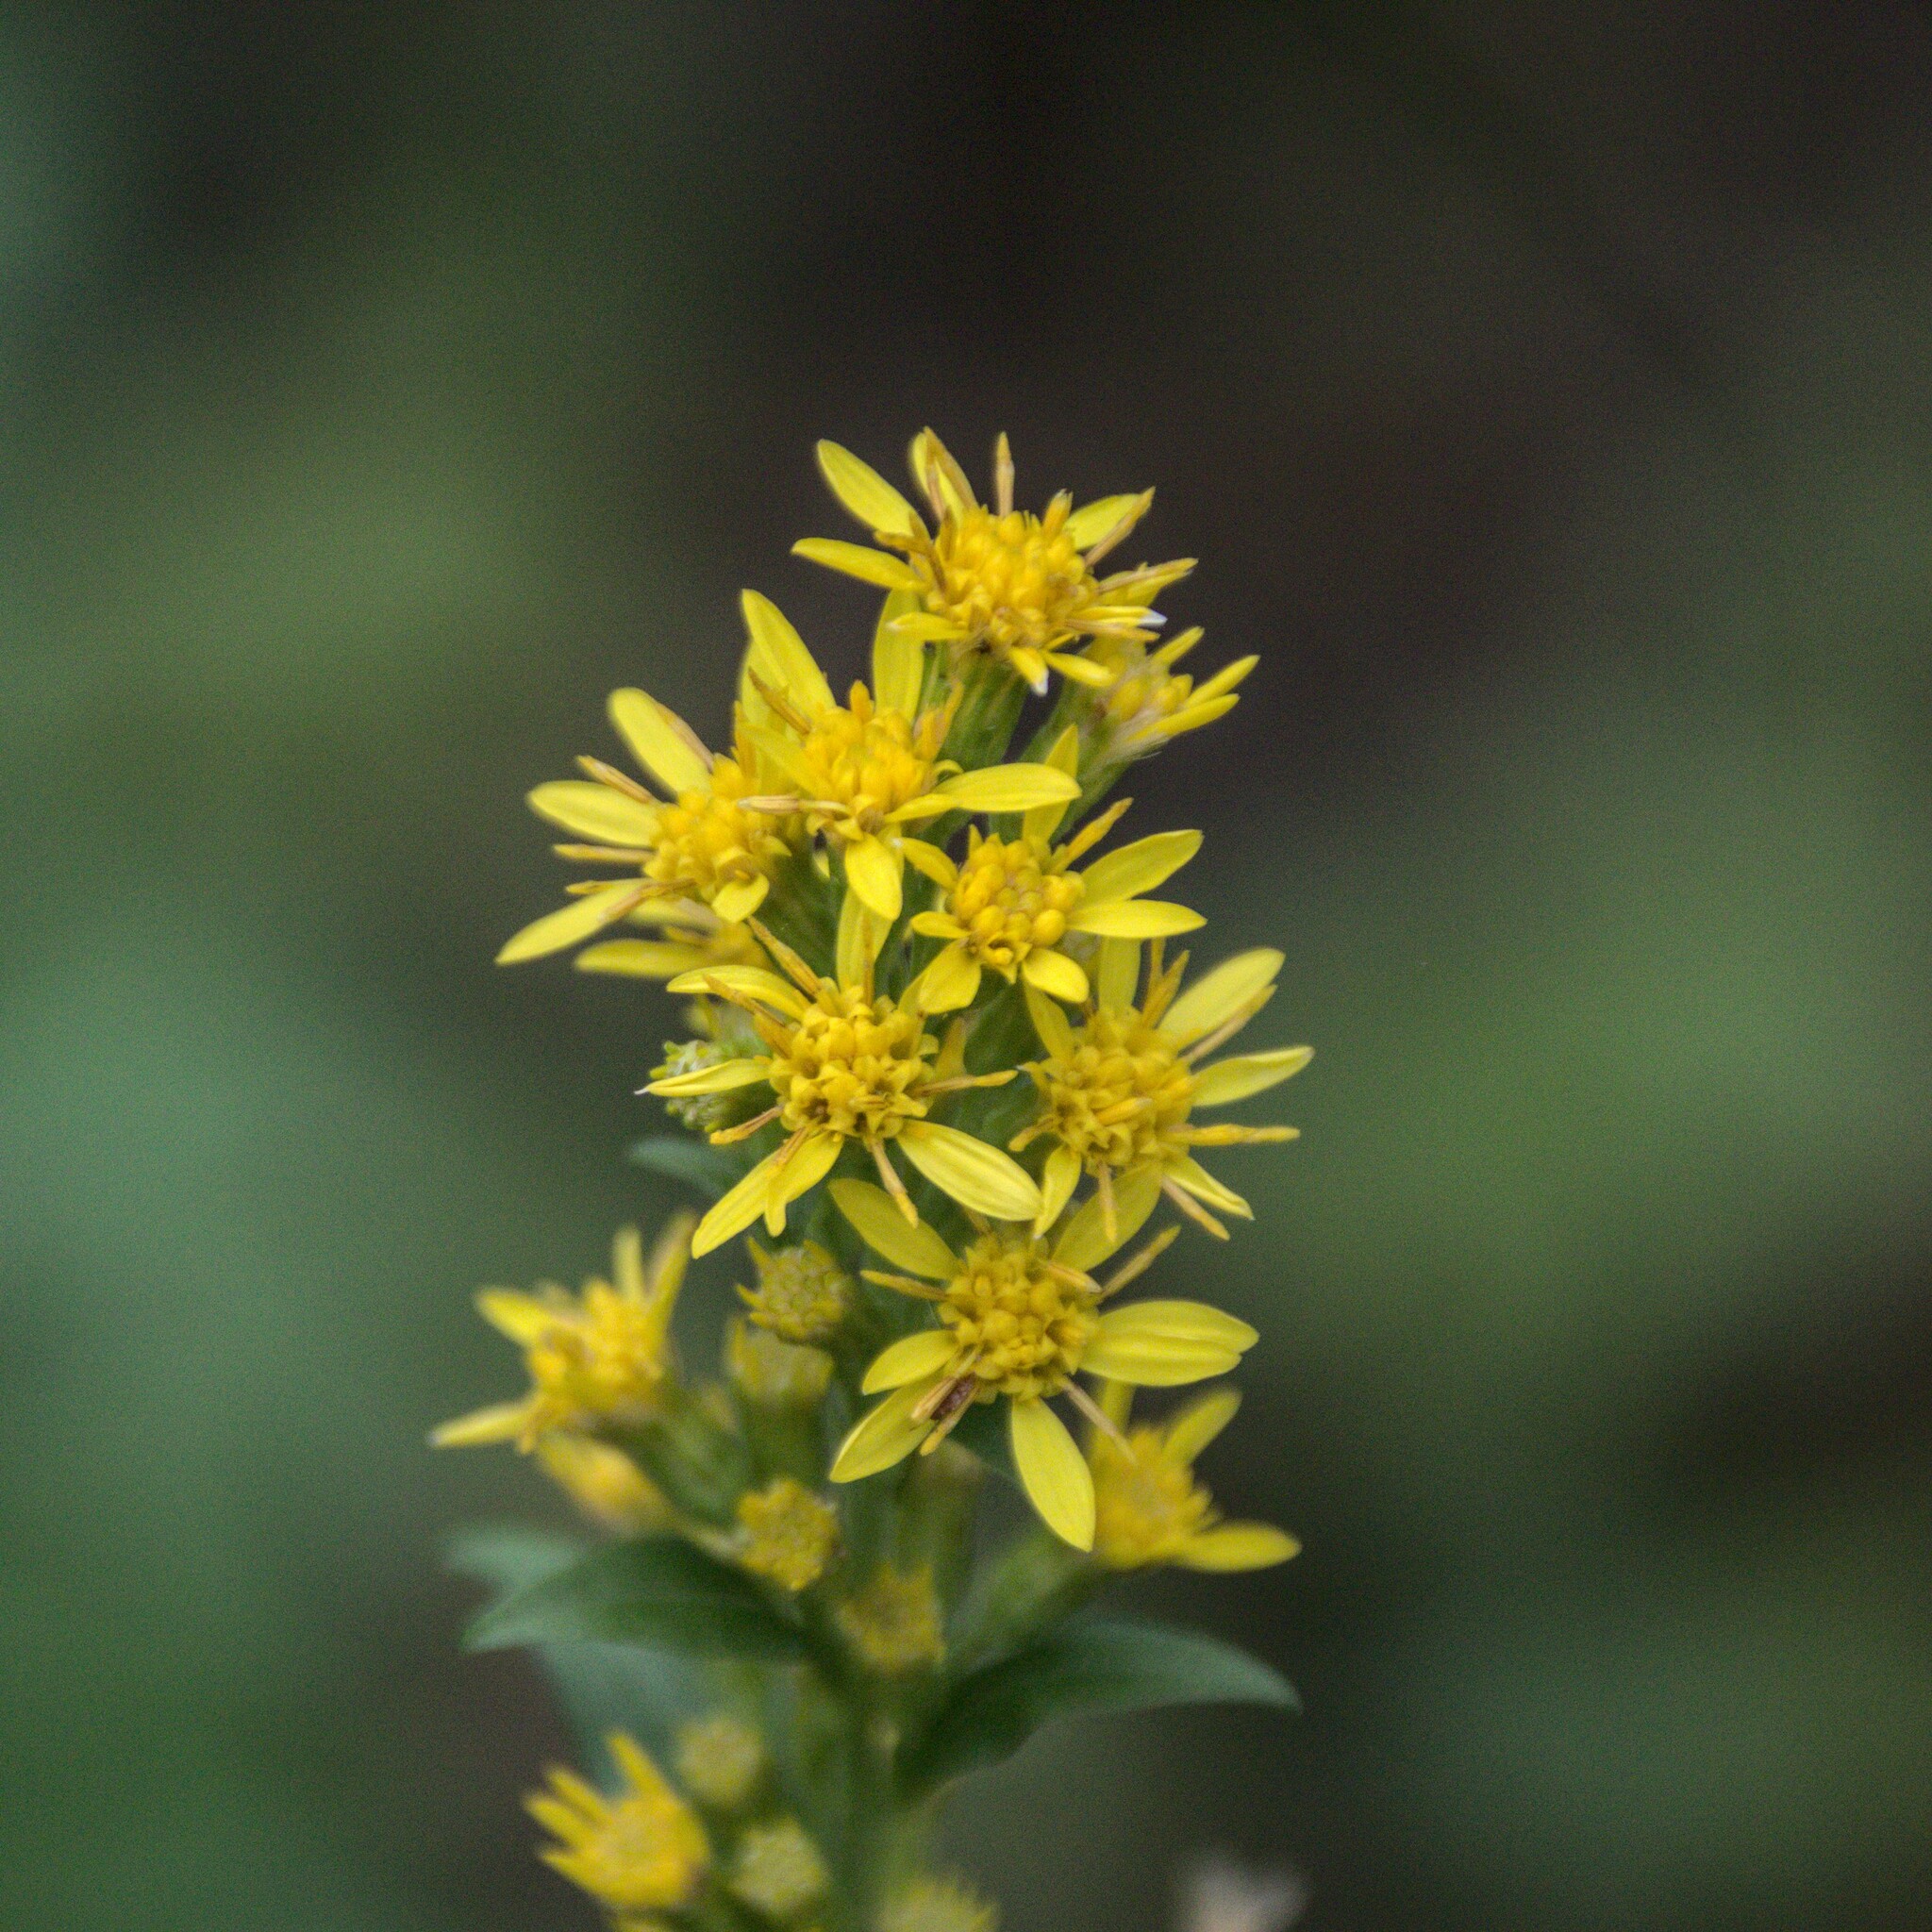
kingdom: Plantae
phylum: Tracheophyta
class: Magnoliopsida
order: Asterales
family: Asteraceae
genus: Solidago
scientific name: Solidago virgaurea
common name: Goldenrod
